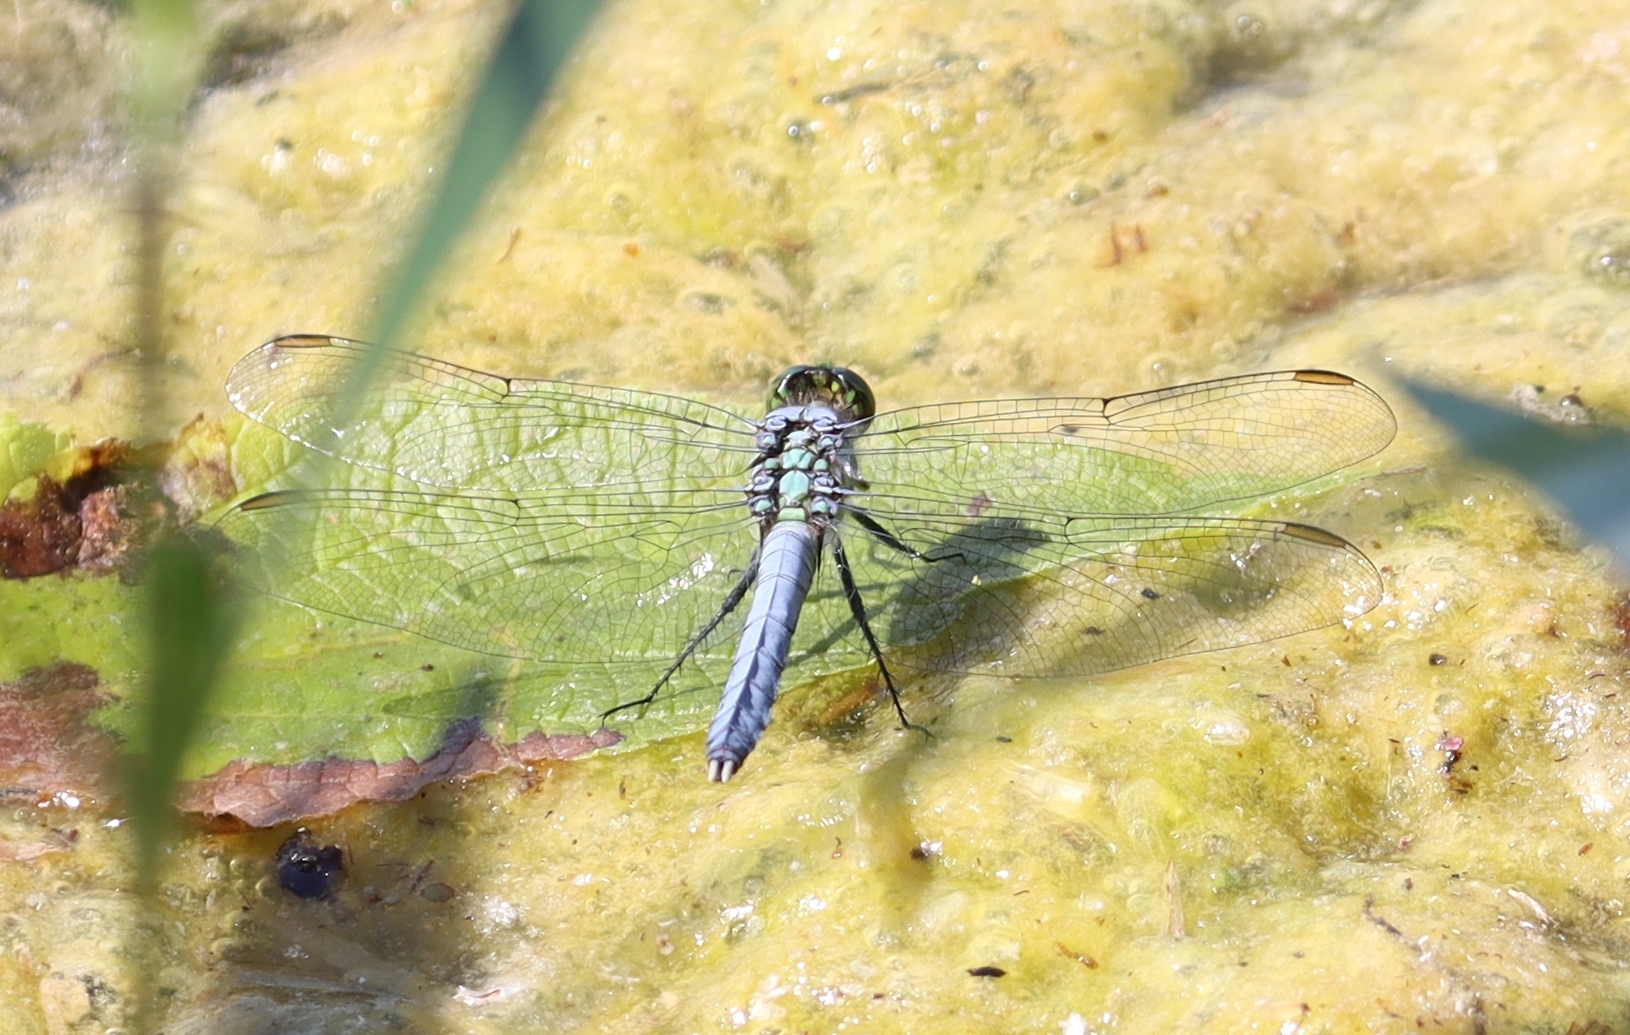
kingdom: Animalia
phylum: Arthropoda
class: Insecta
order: Odonata
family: Libellulidae
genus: Erythemis
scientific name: Erythemis simplicicollis
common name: Eastern pondhawk
